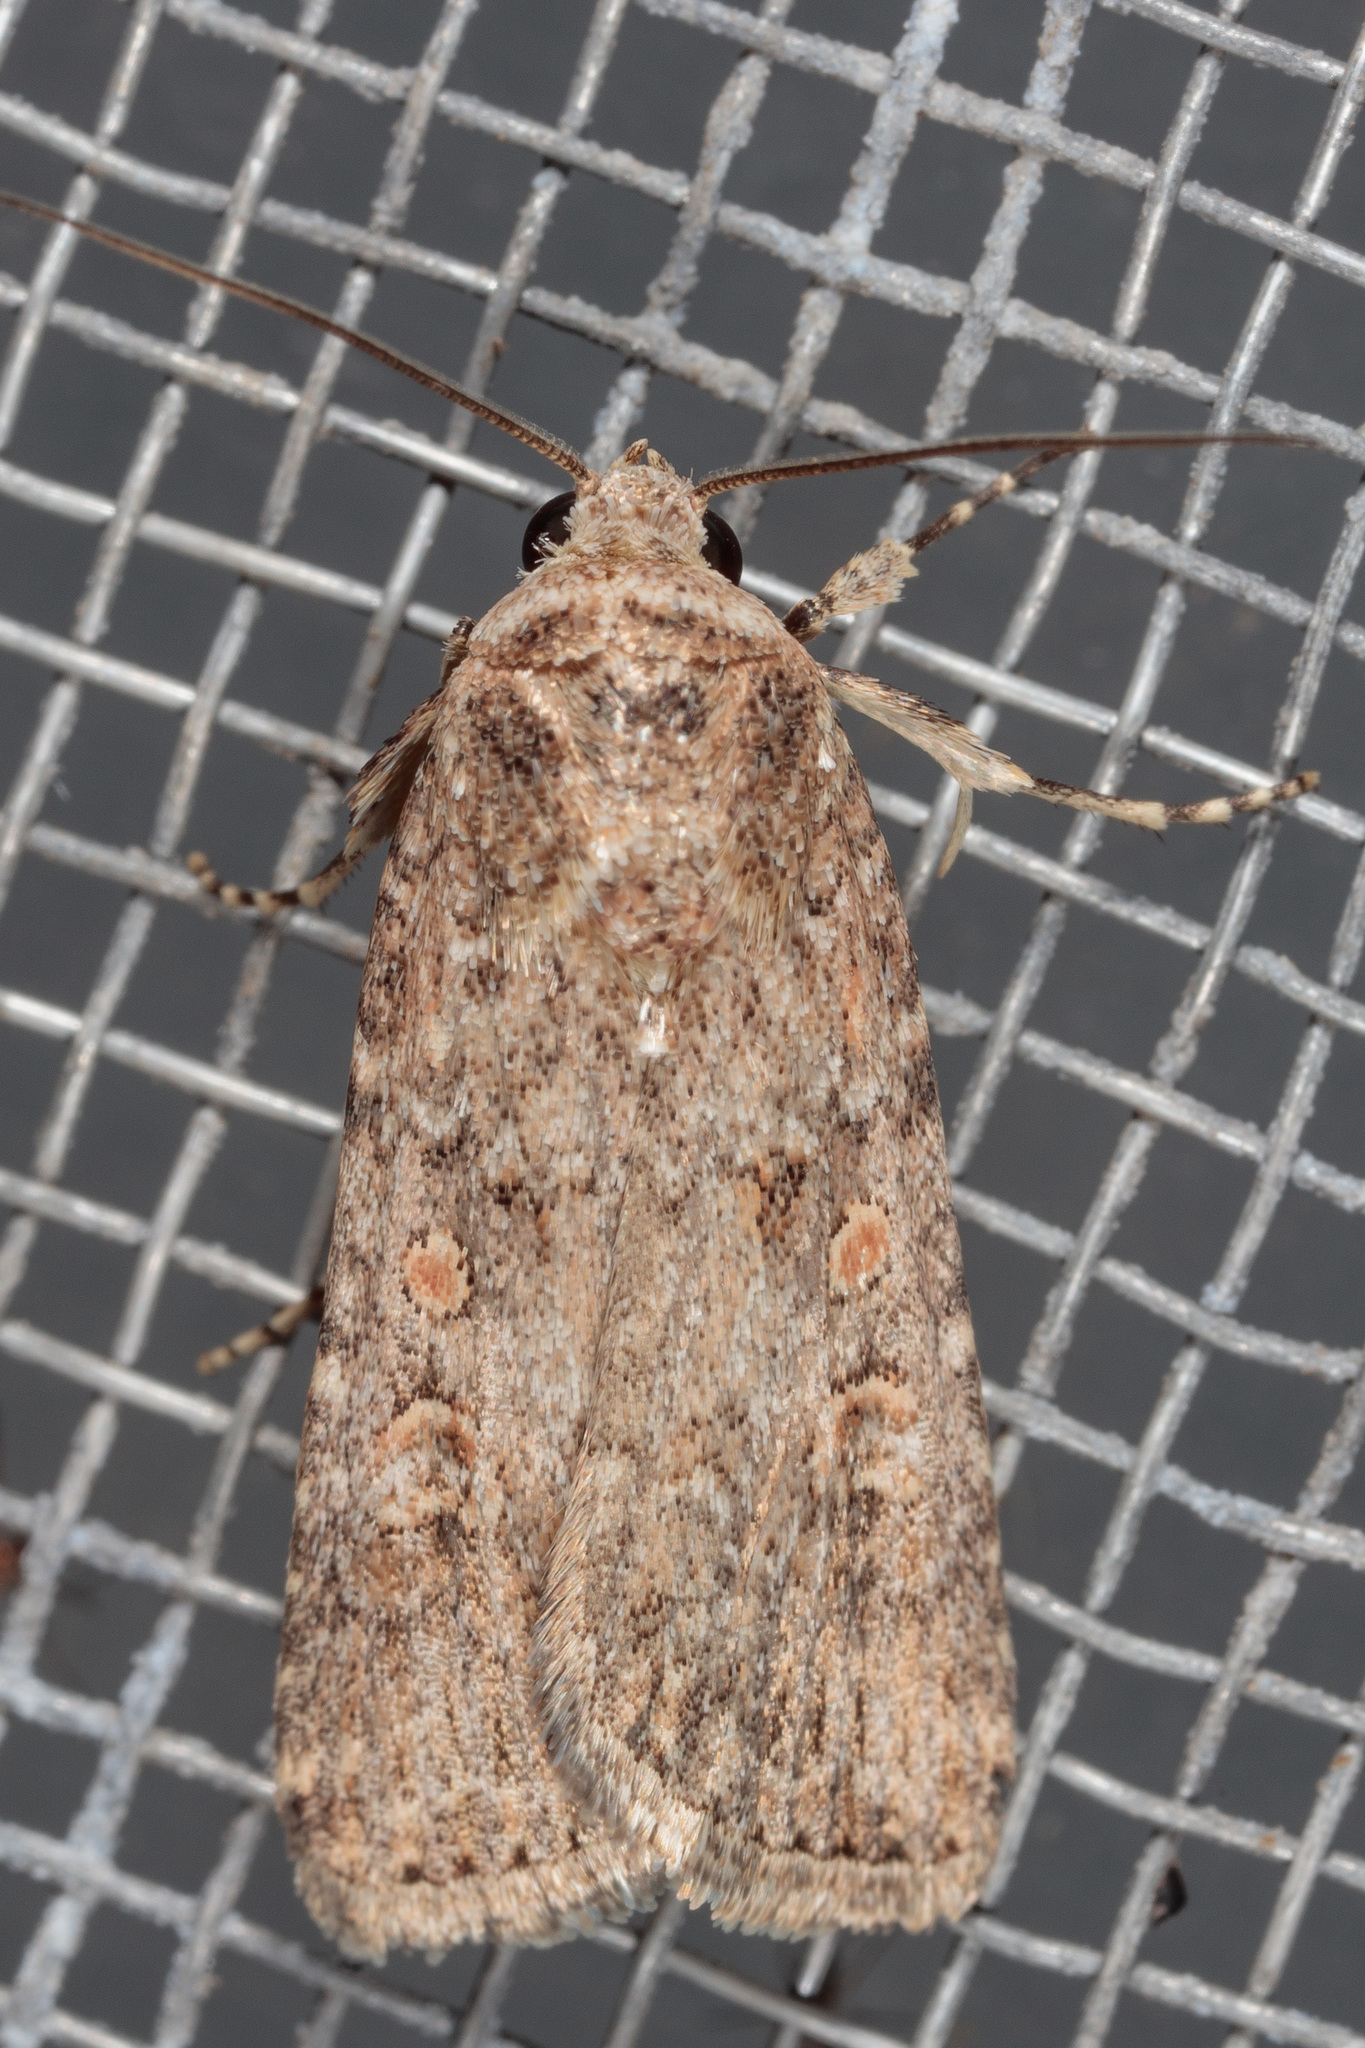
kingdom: Animalia
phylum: Arthropoda
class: Insecta
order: Lepidoptera
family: Noctuidae
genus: Spodoptera
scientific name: Spodoptera exigua
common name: Beet armyworm
